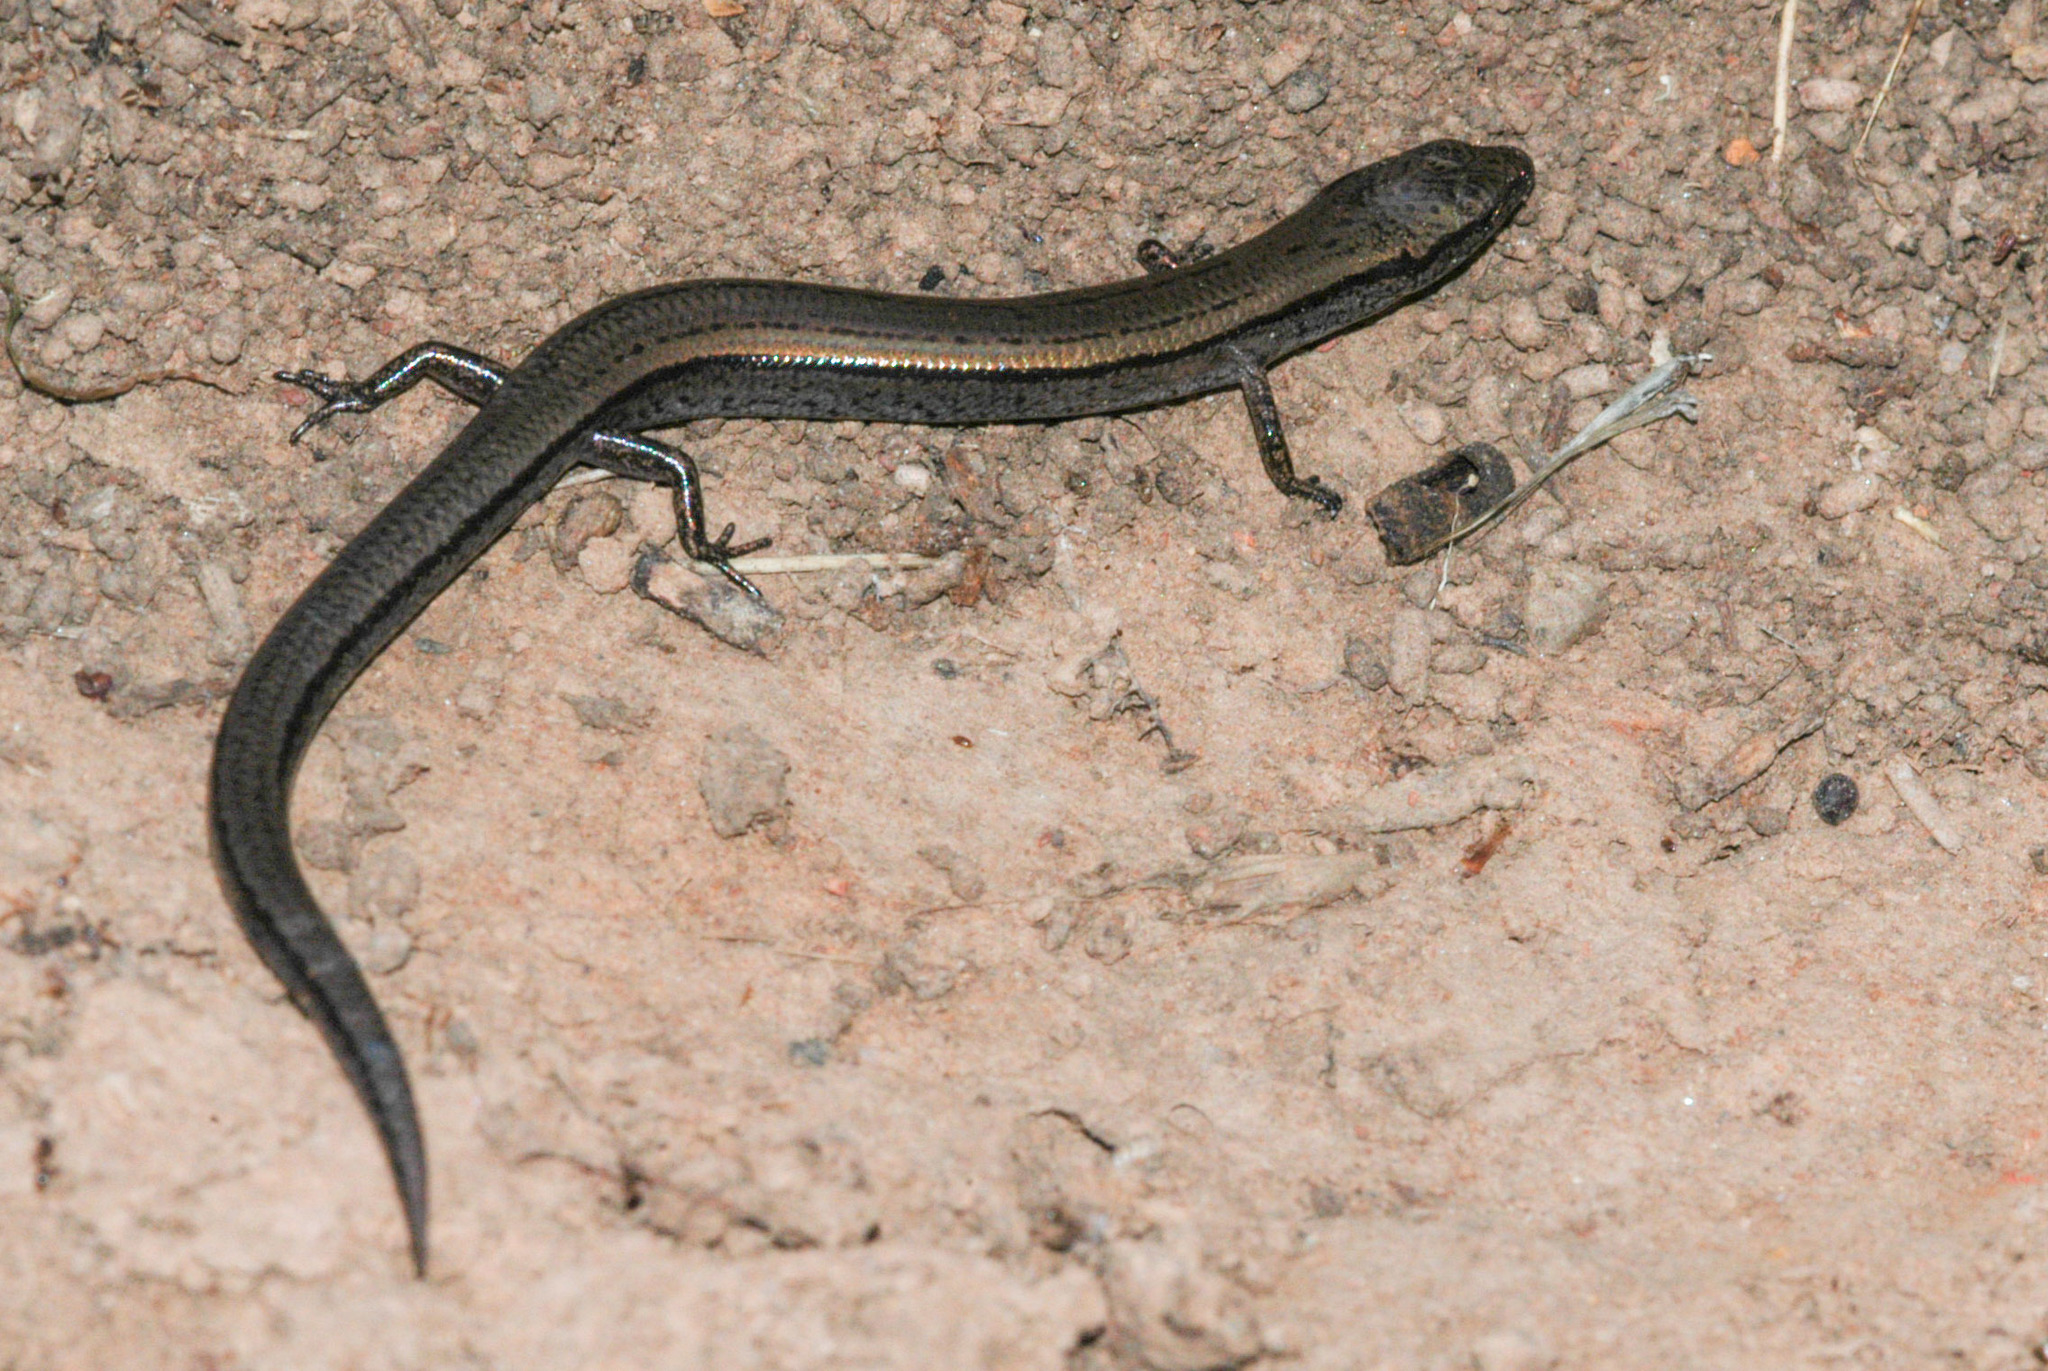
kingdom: Animalia
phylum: Chordata
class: Squamata
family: Scincidae
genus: Hemiergis
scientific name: Hemiergis decresiensis
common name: Three-toed earless skink
